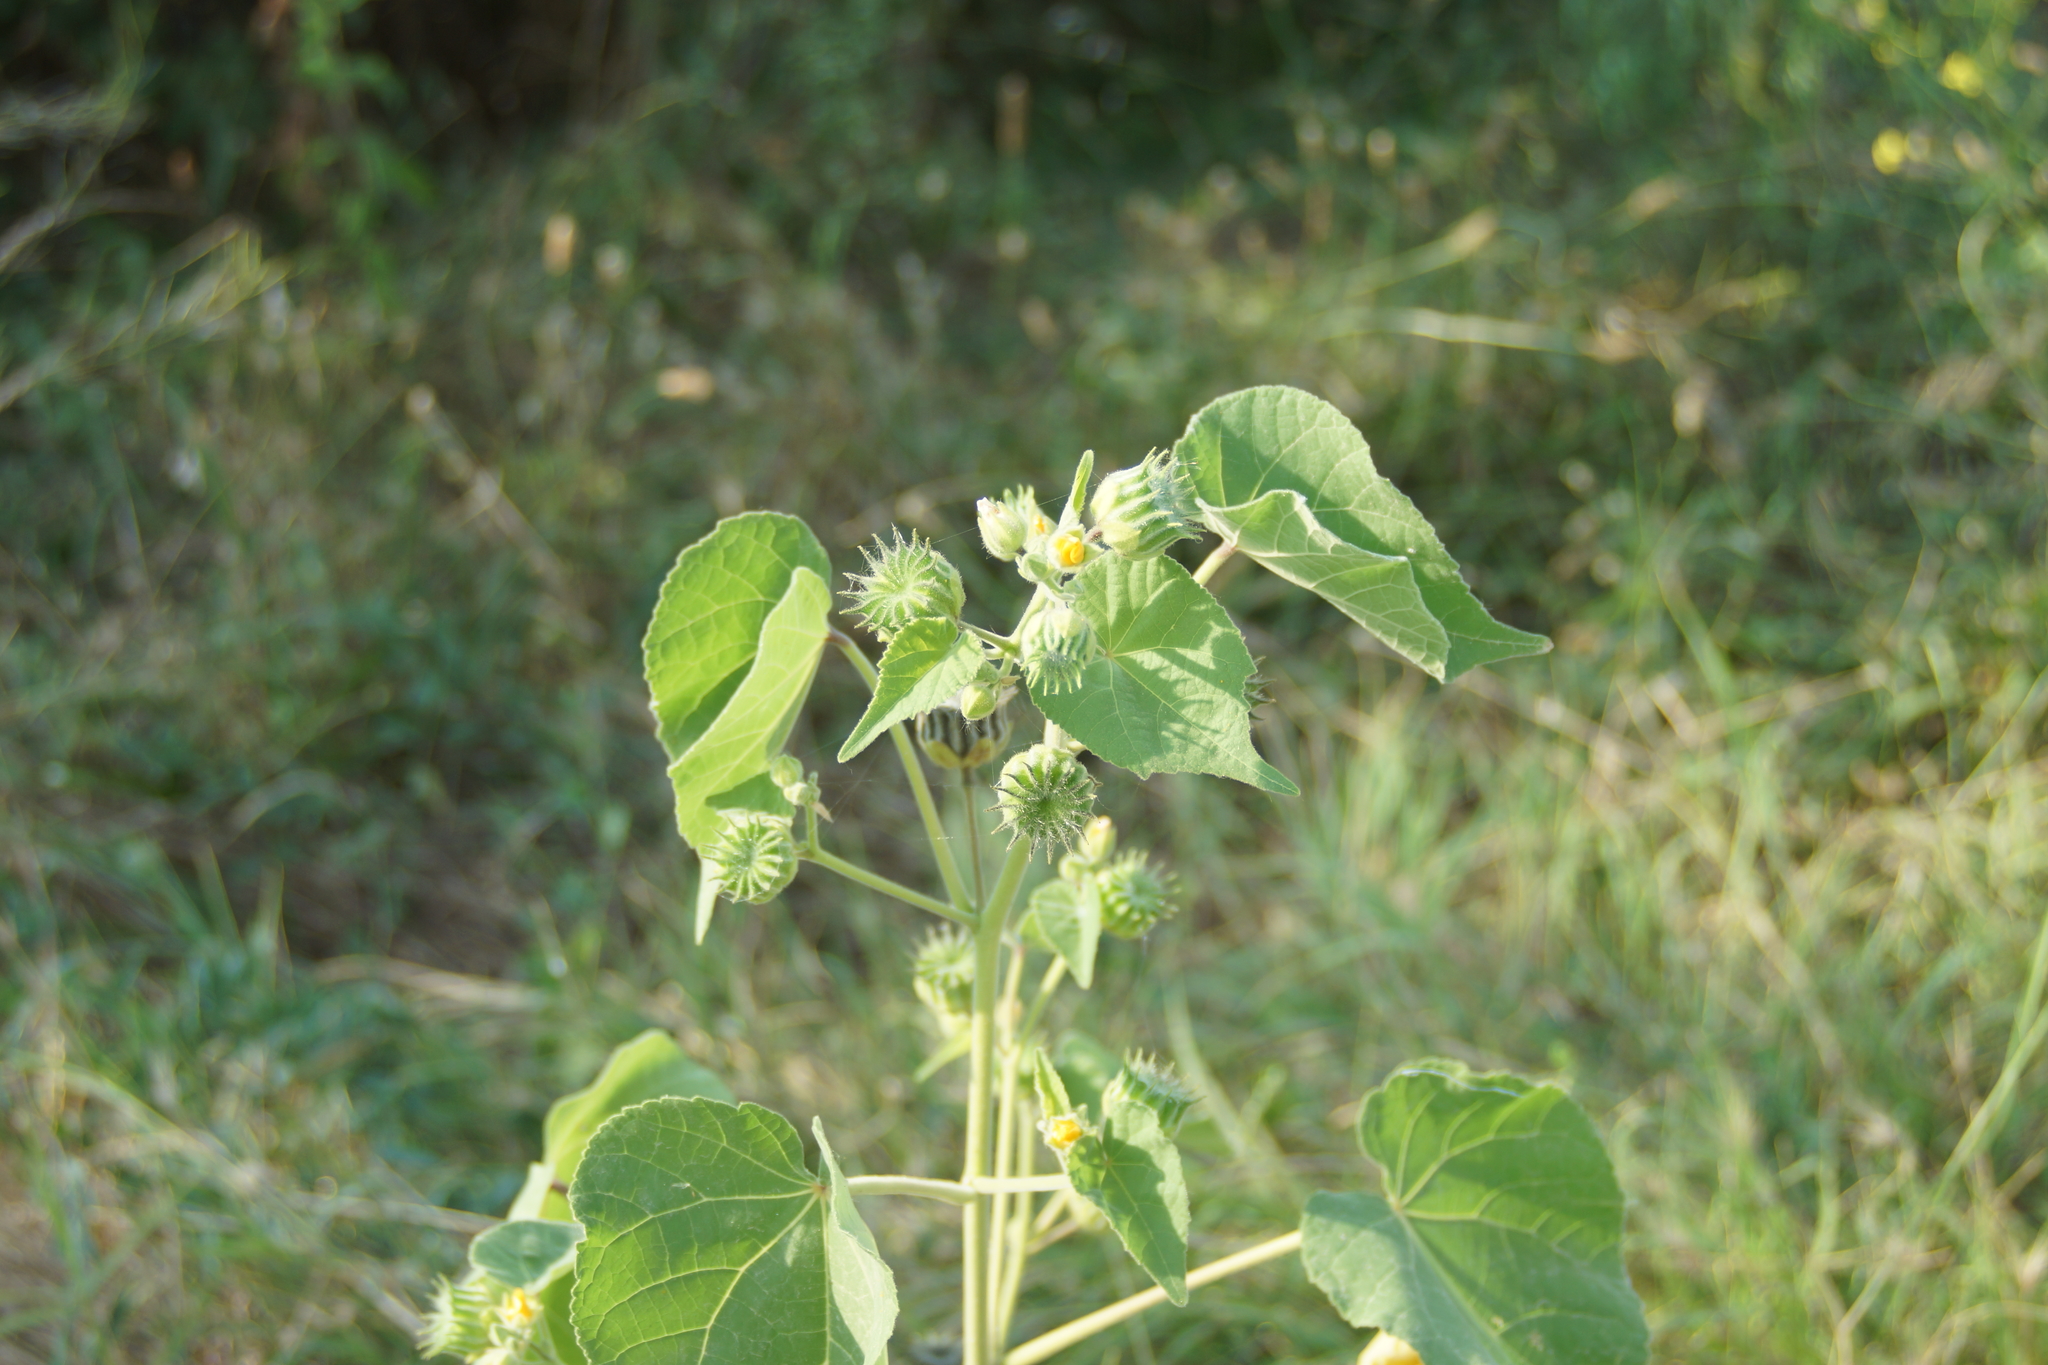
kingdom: Plantae
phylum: Tracheophyta
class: Magnoliopsida
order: Malvales
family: Malvaceae
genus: Abutilon
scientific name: Abutilon theophrasti
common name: Velvetleaf
